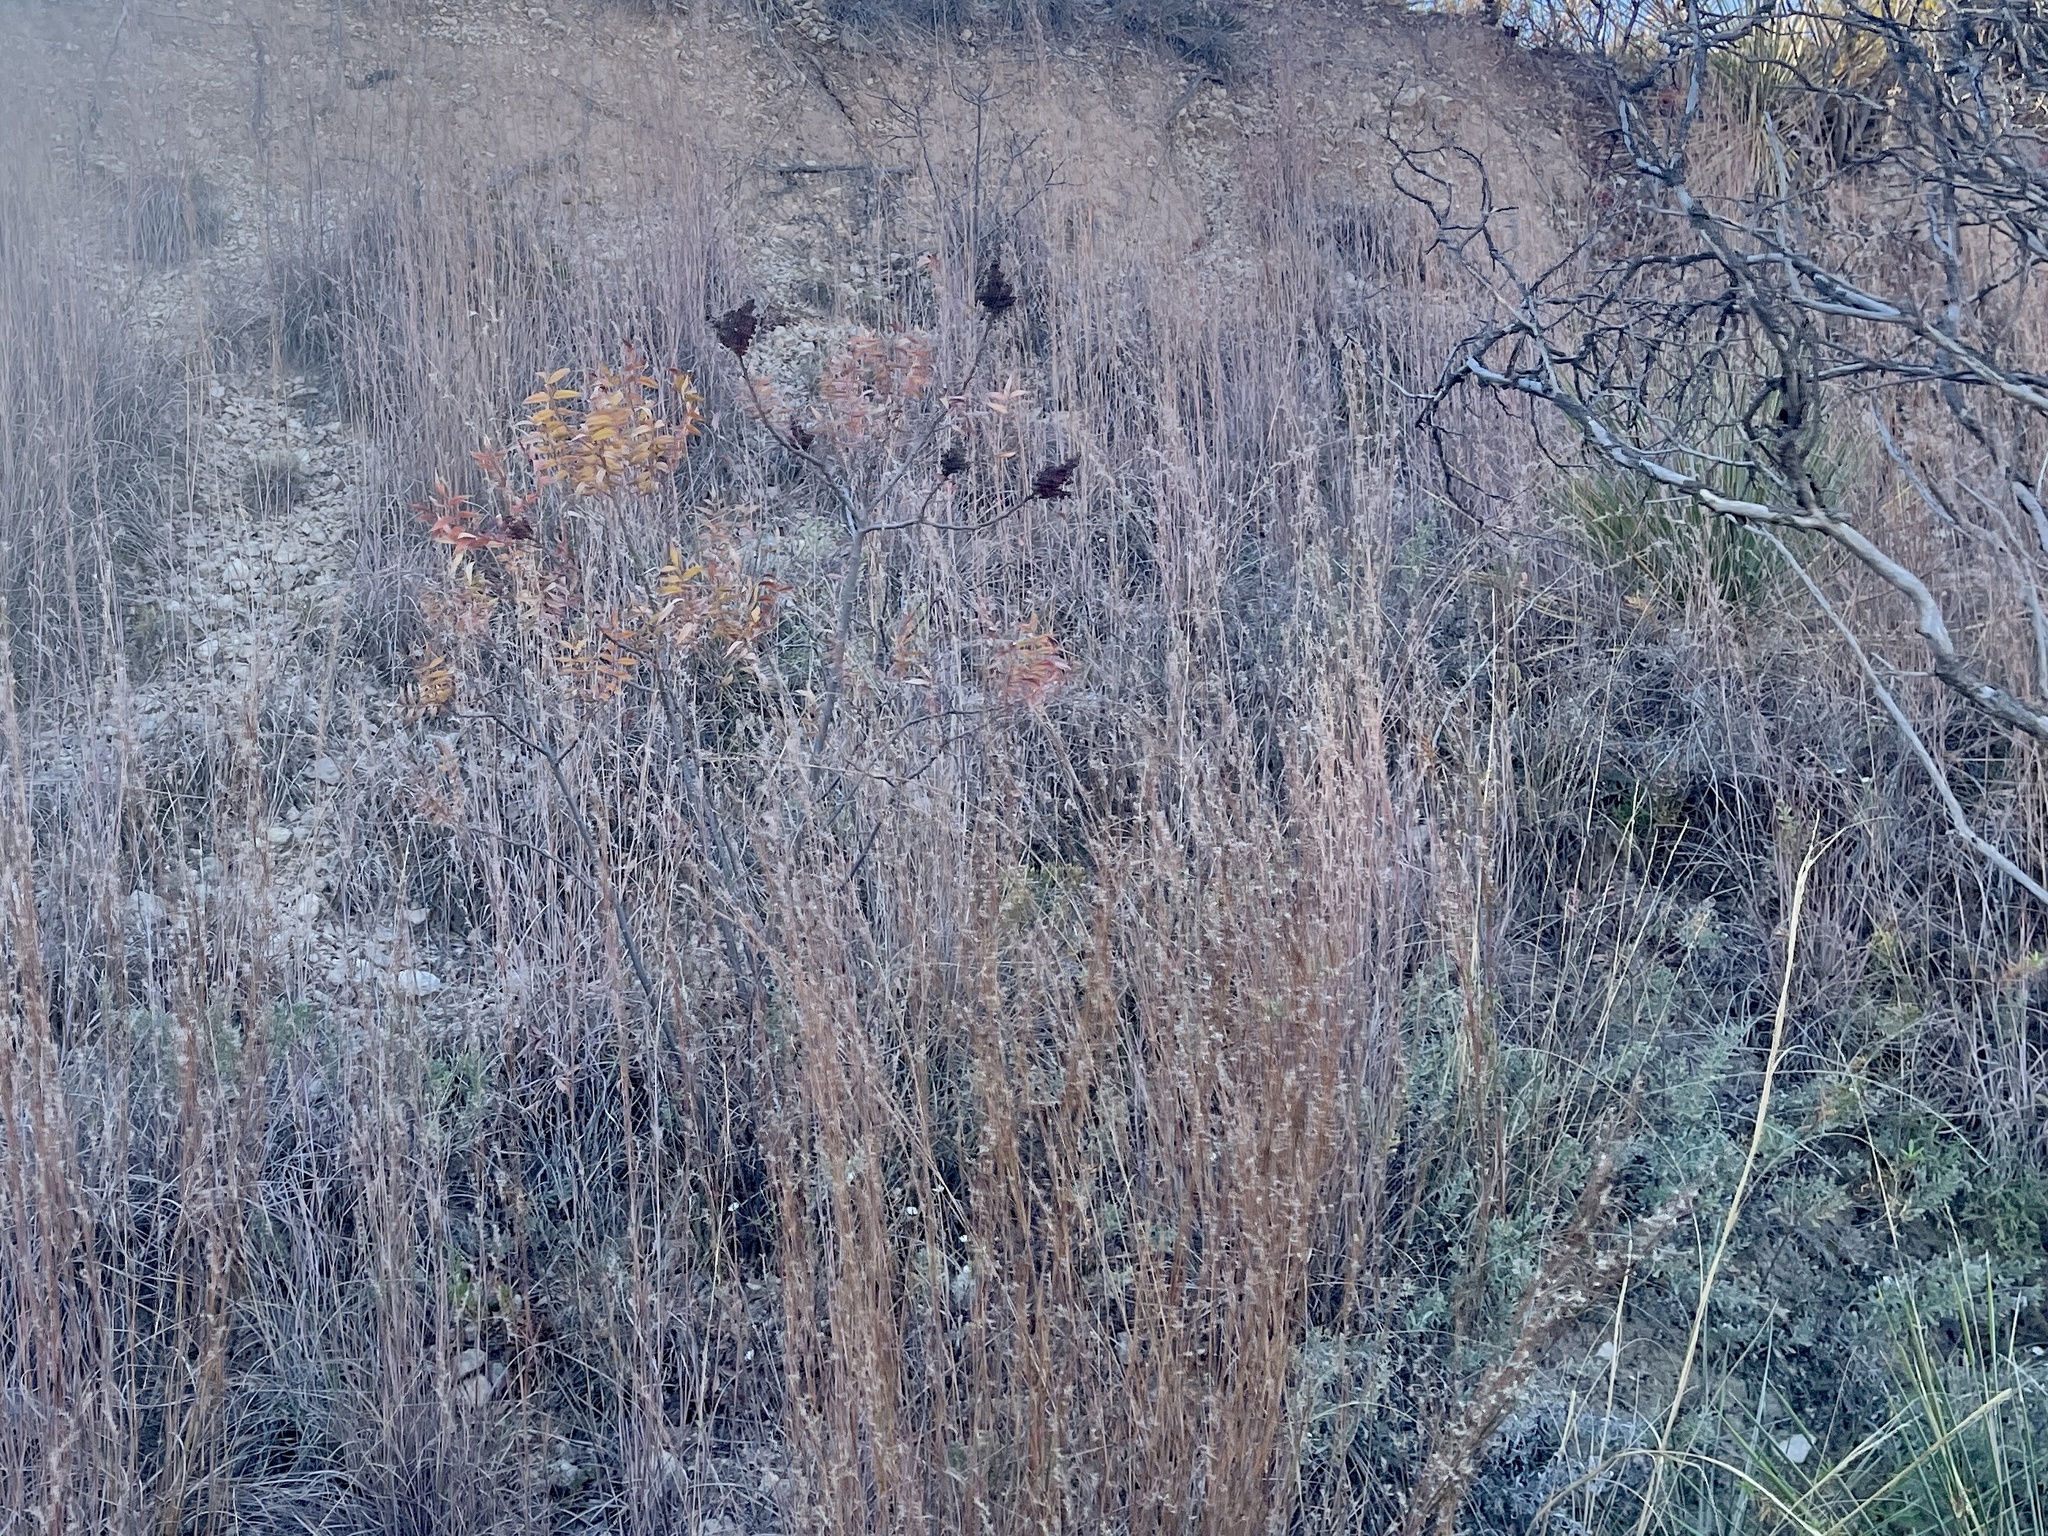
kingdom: Plantae
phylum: Tracheophyta
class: Magnoliopsida
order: Sapindales
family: Anacardiaceae
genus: Rhus
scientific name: Rhus lanceolata
